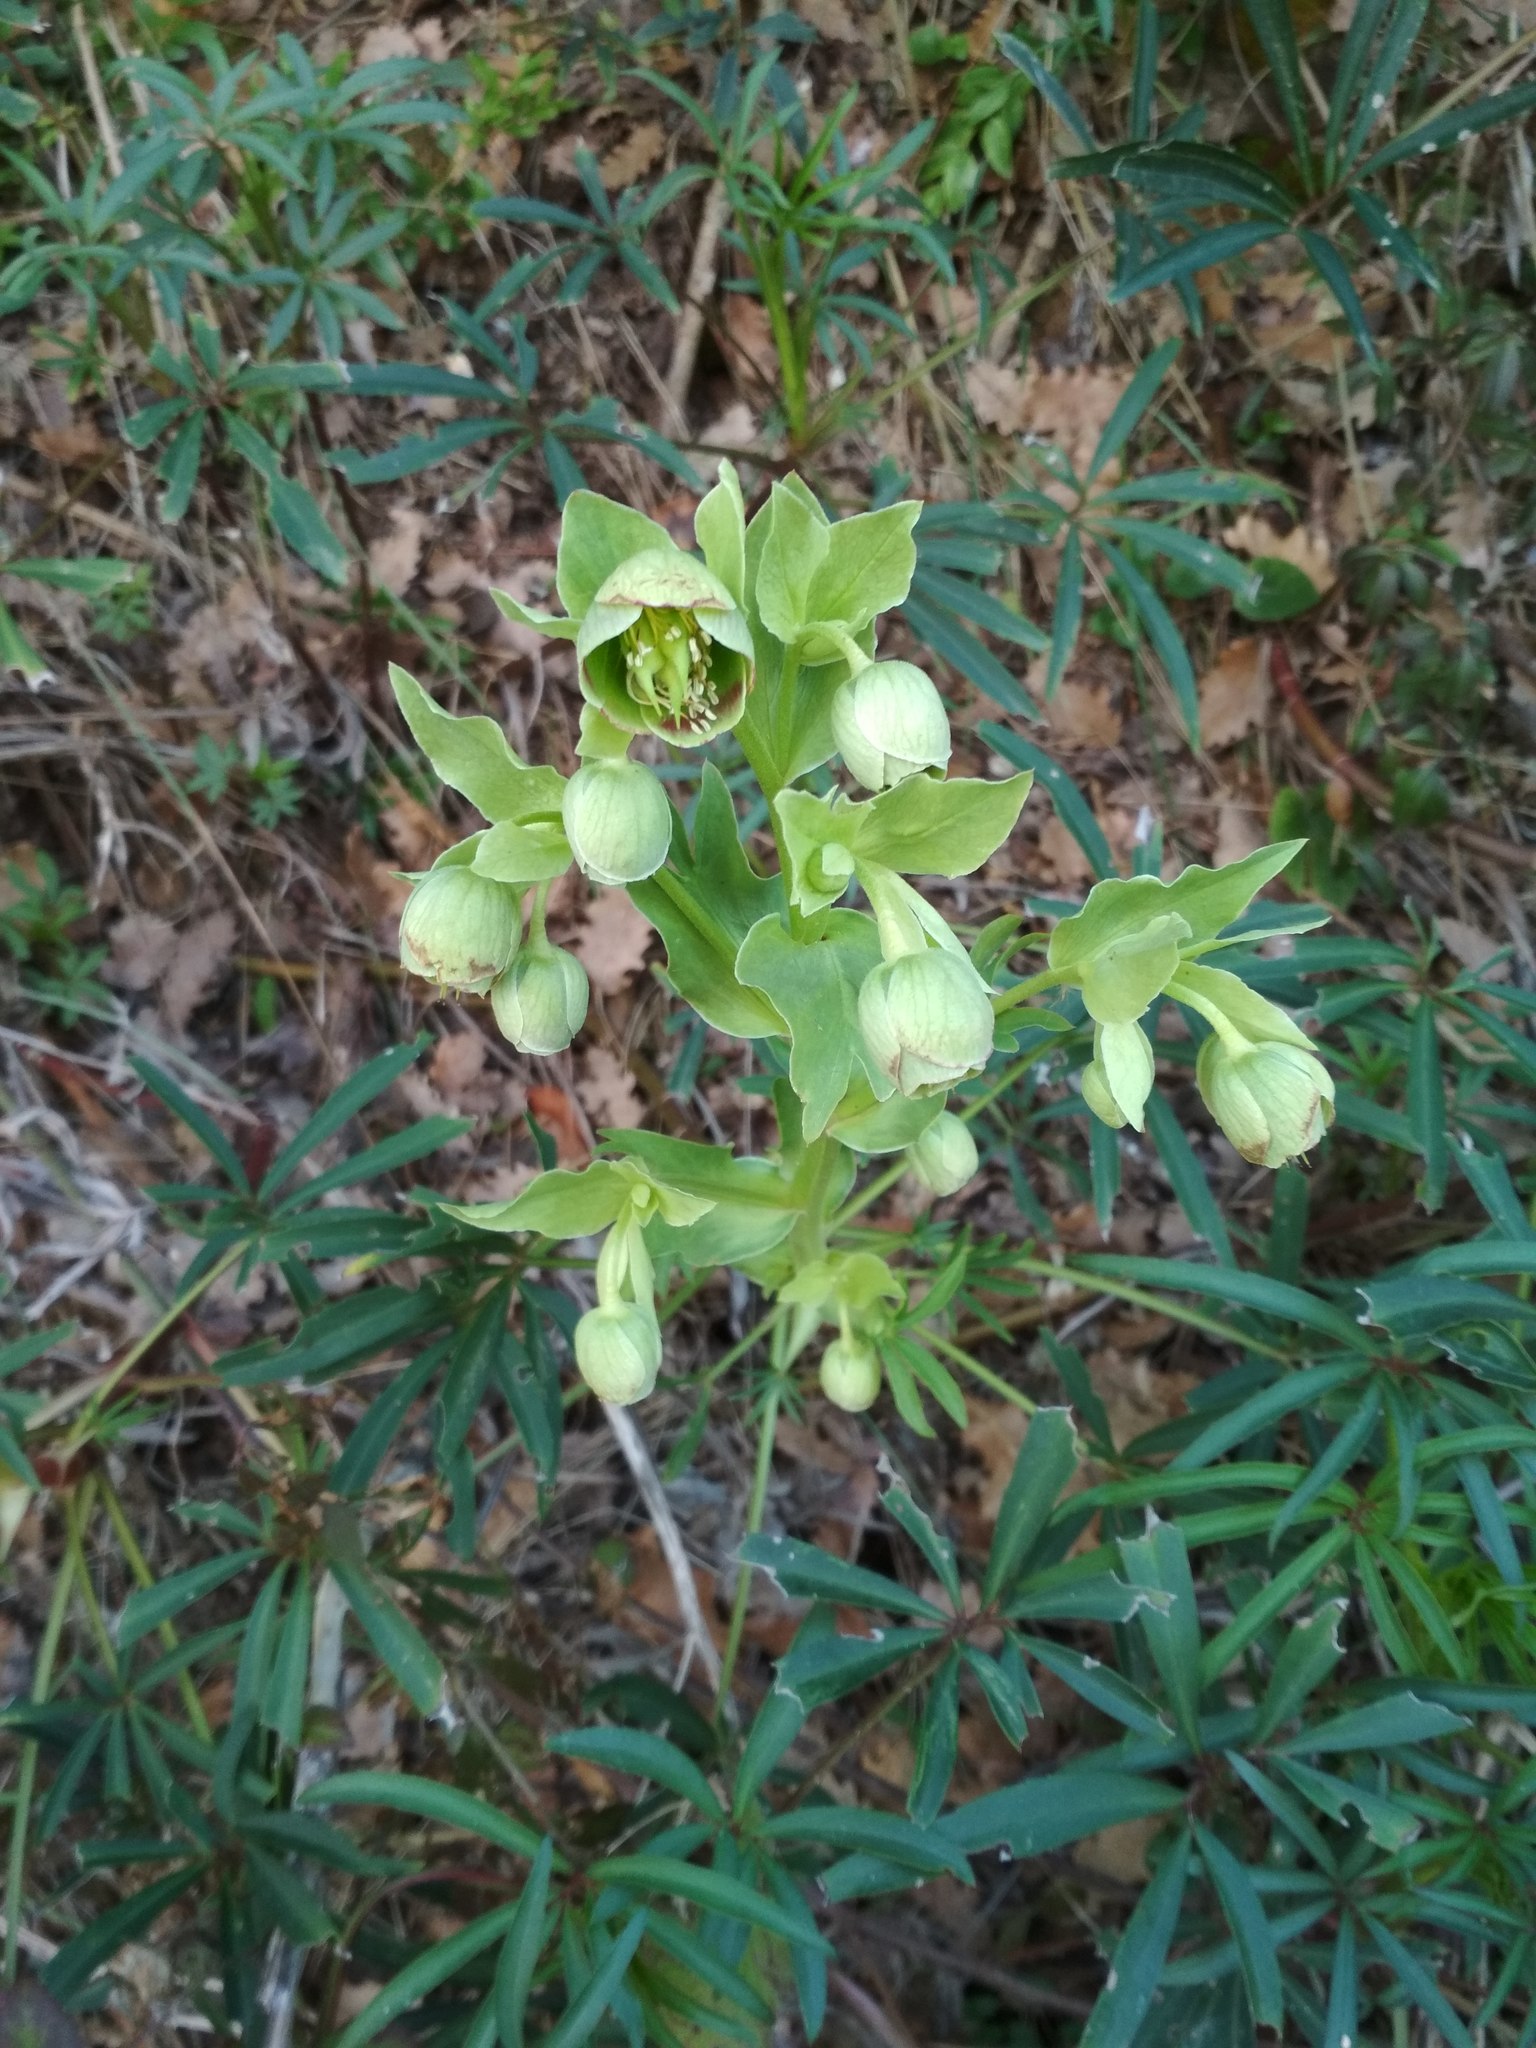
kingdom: Plantae
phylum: Tracheophyta
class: Magnoliopsida
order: Ranunculales
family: Ranunculaceae
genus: Helleborus
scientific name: Helleborus foetidus
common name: Stinking hellebore
